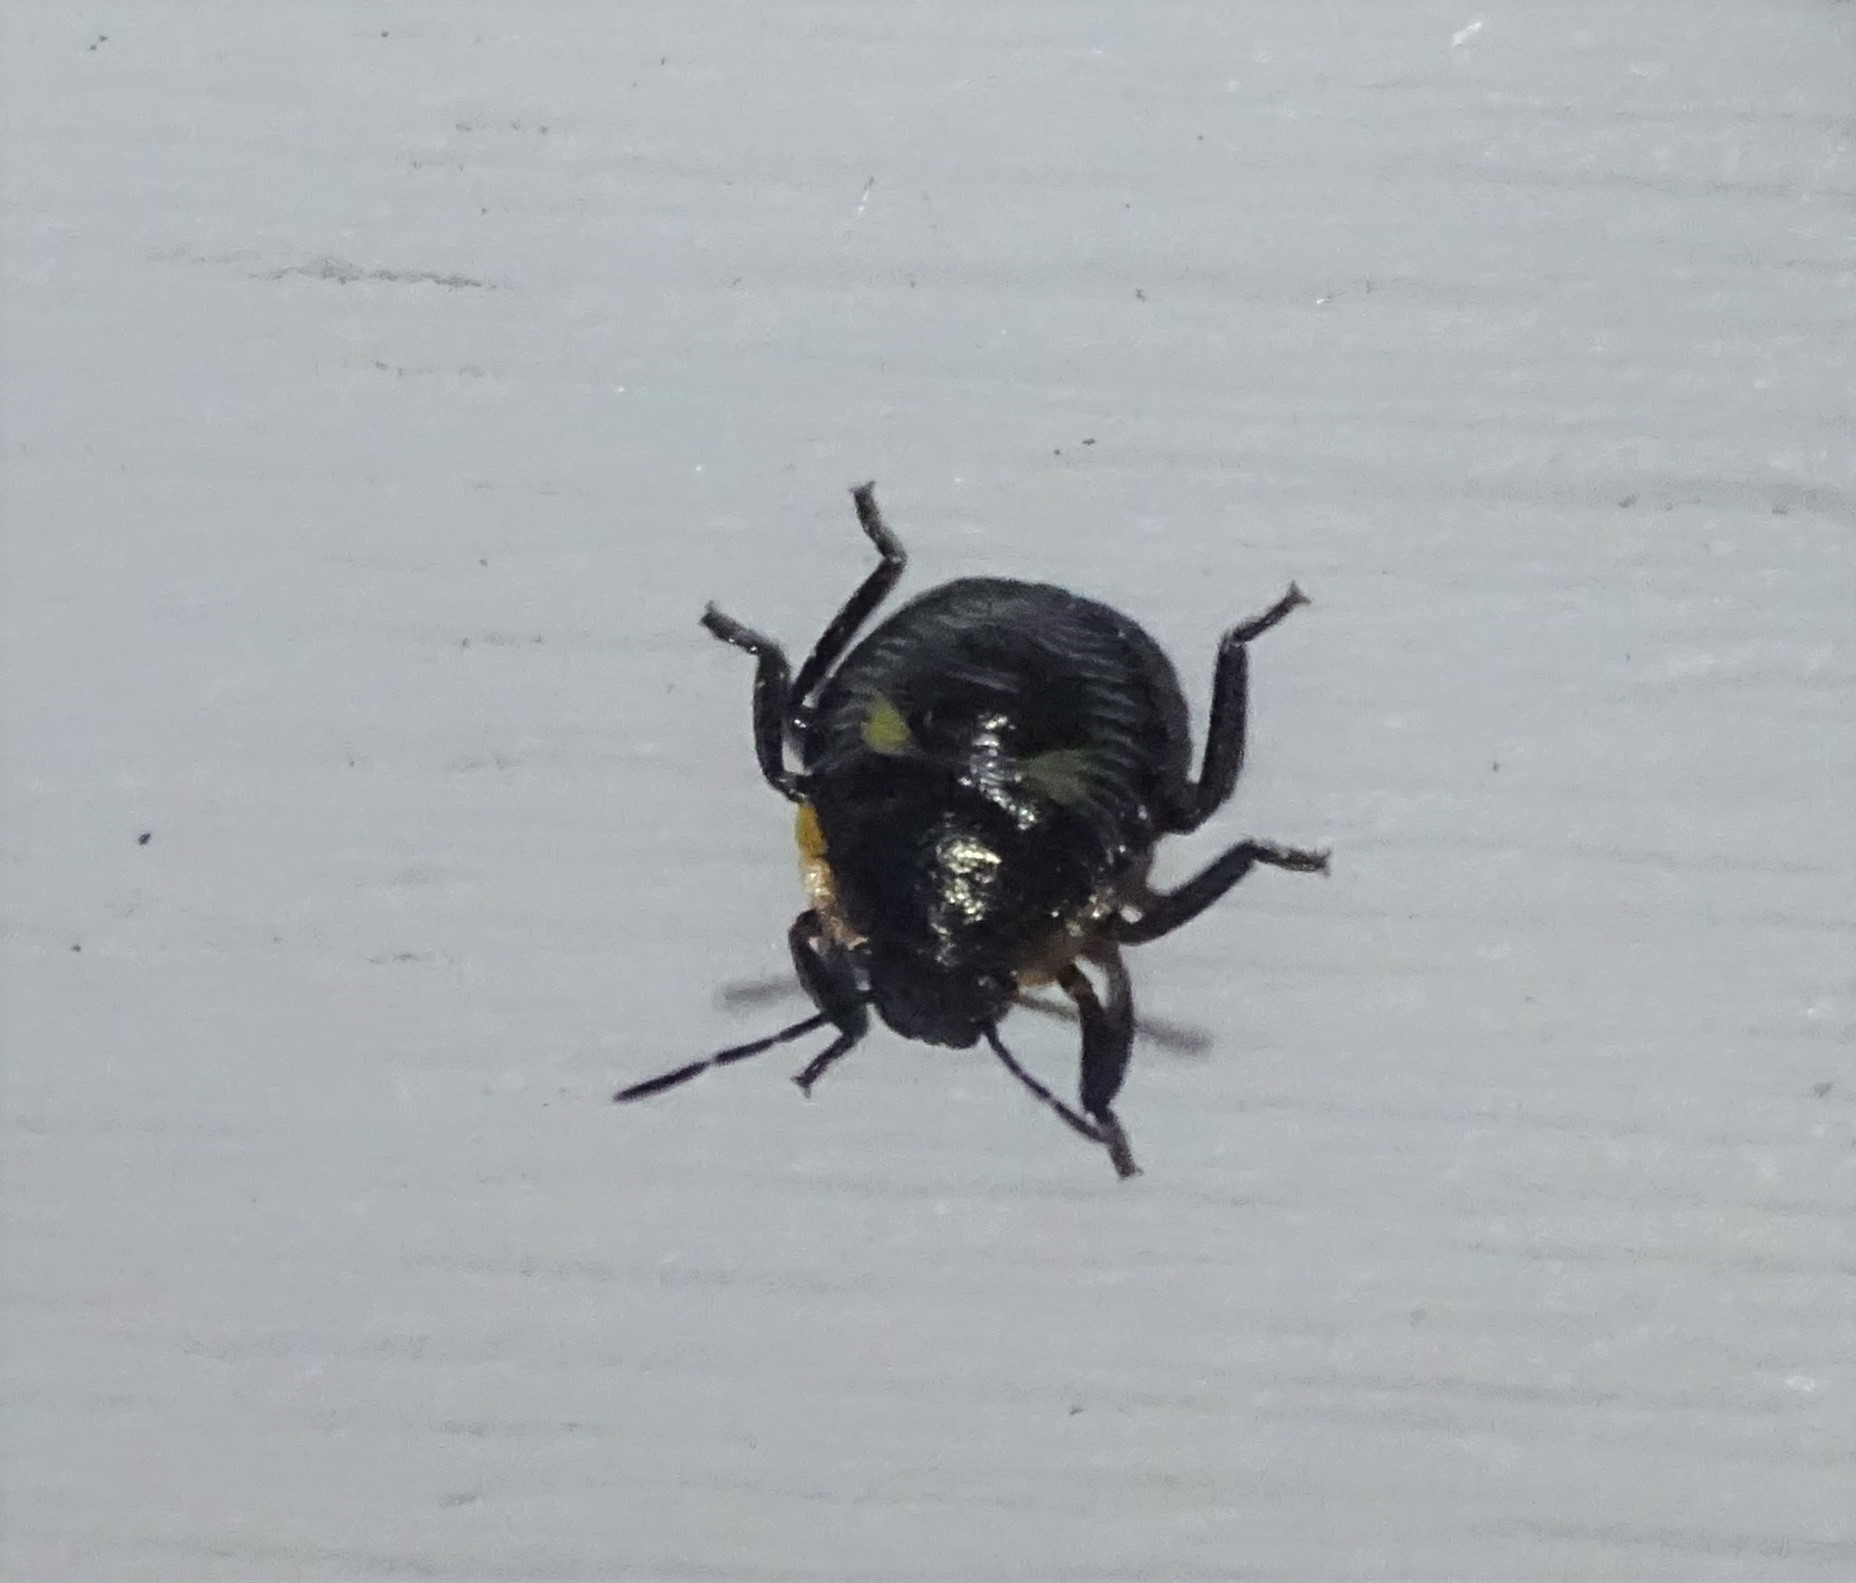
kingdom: Animalia
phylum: Arthropoda
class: Insecta
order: Hemiptera
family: Pentatomidae
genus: Chinavia
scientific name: Chinavia hilaris
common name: Green stink bug
